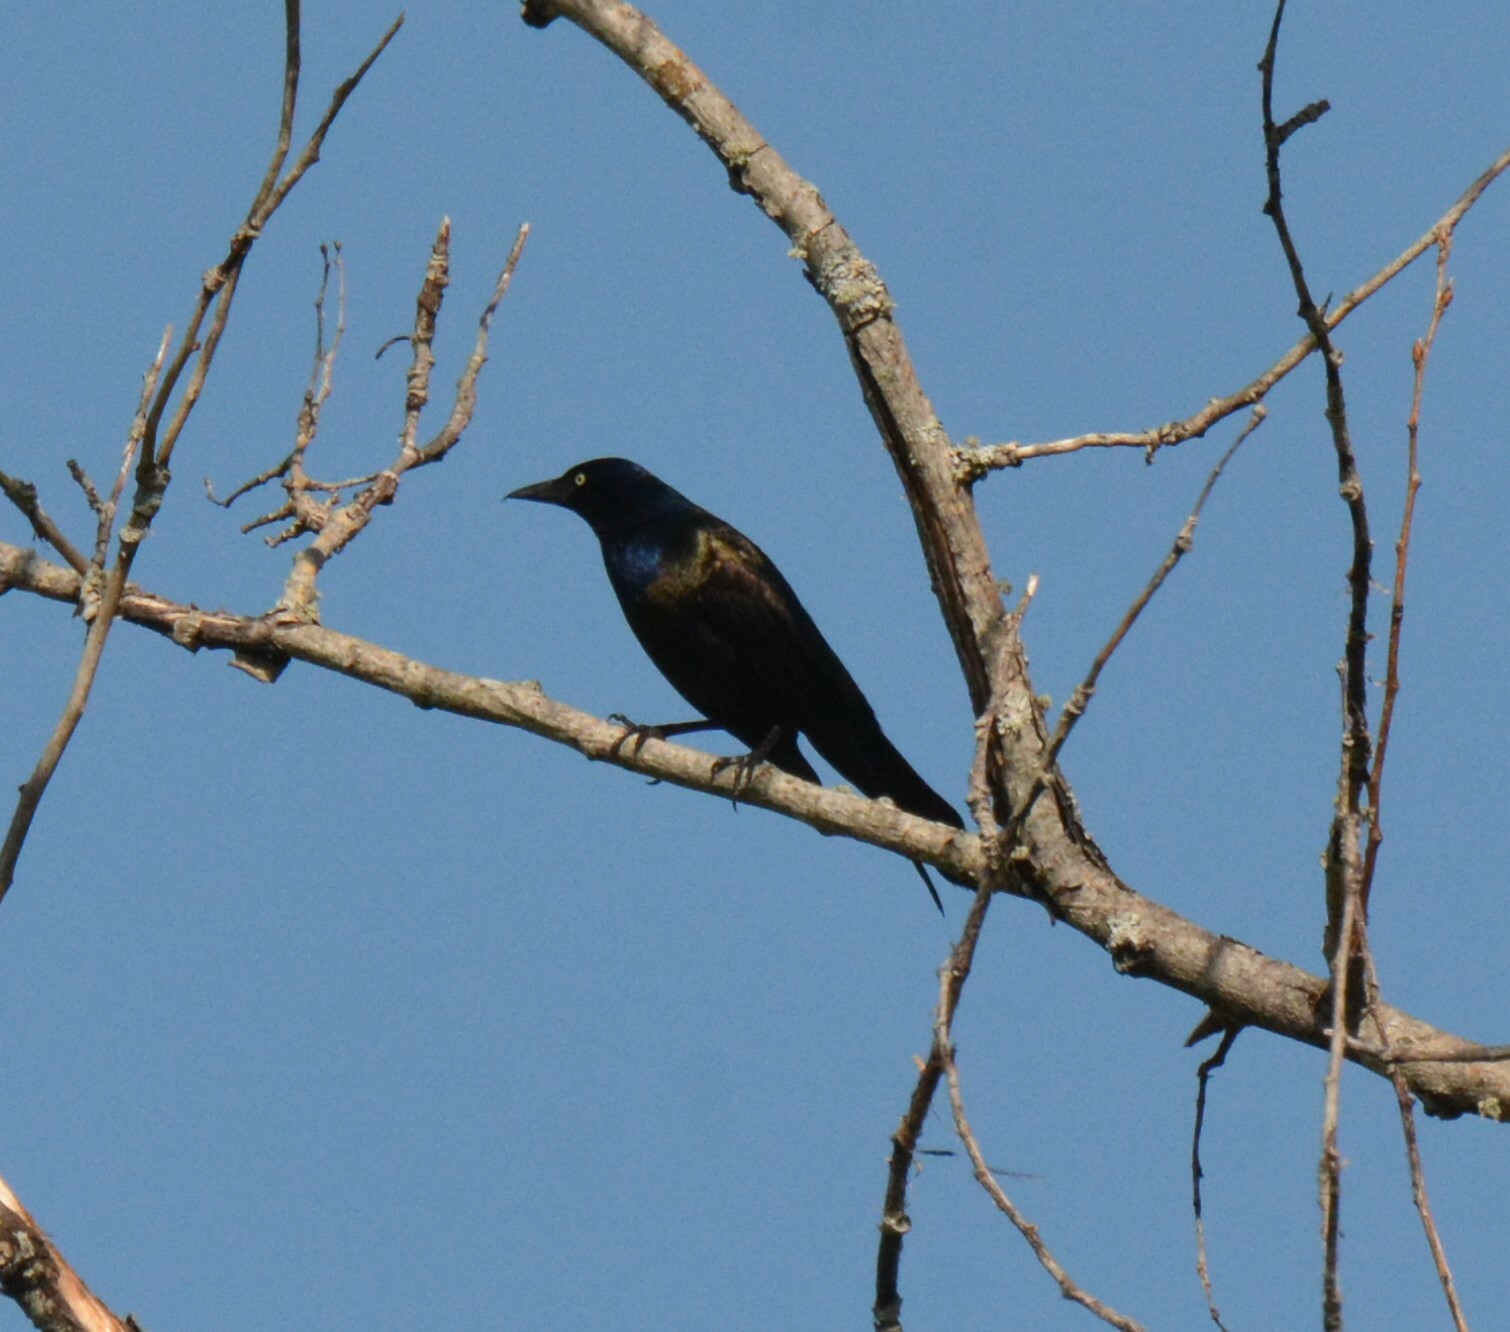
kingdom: Animalia
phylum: Chordata
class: Aves
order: Passeriformes
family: Icteridae
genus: Quiscalus
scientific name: Quiscalus quiscula
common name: Common grackle
